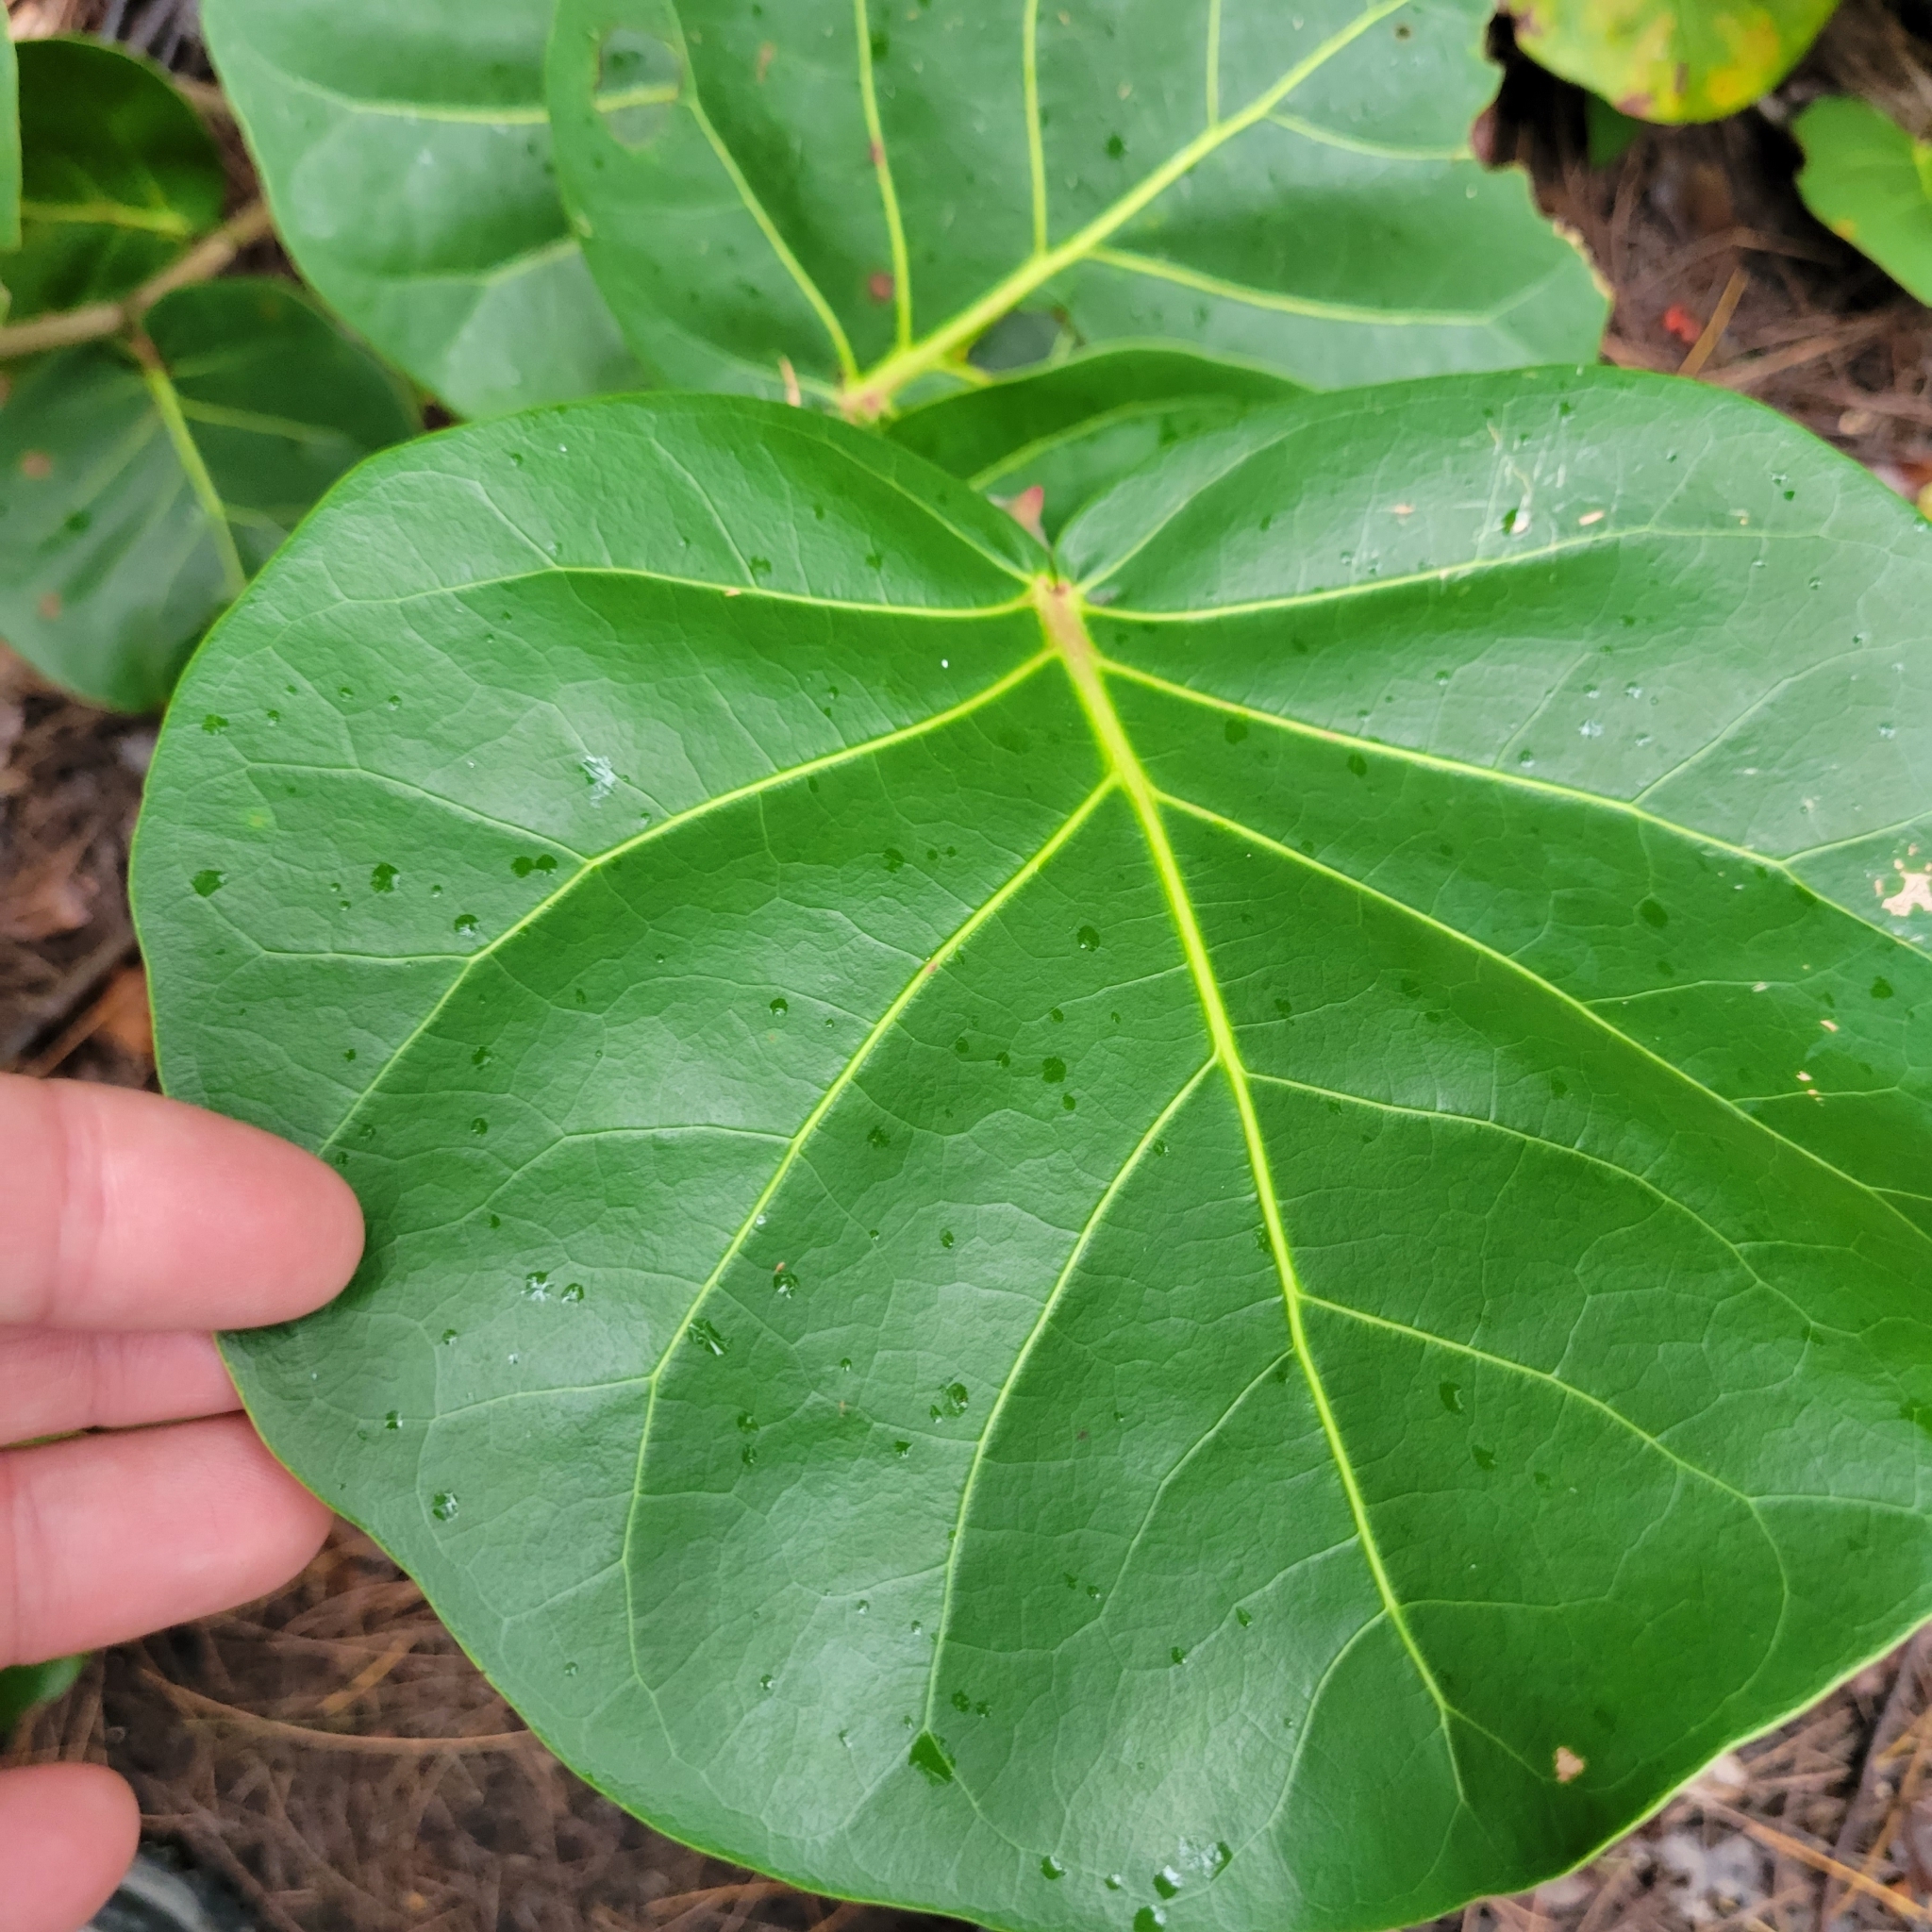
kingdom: Plantae
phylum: Tracheophyta
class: Magnoliopsida
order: Caryophyllales
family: Polygonaceae
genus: Coccoloba
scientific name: Coccoloba uvifera
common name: Seagrape
